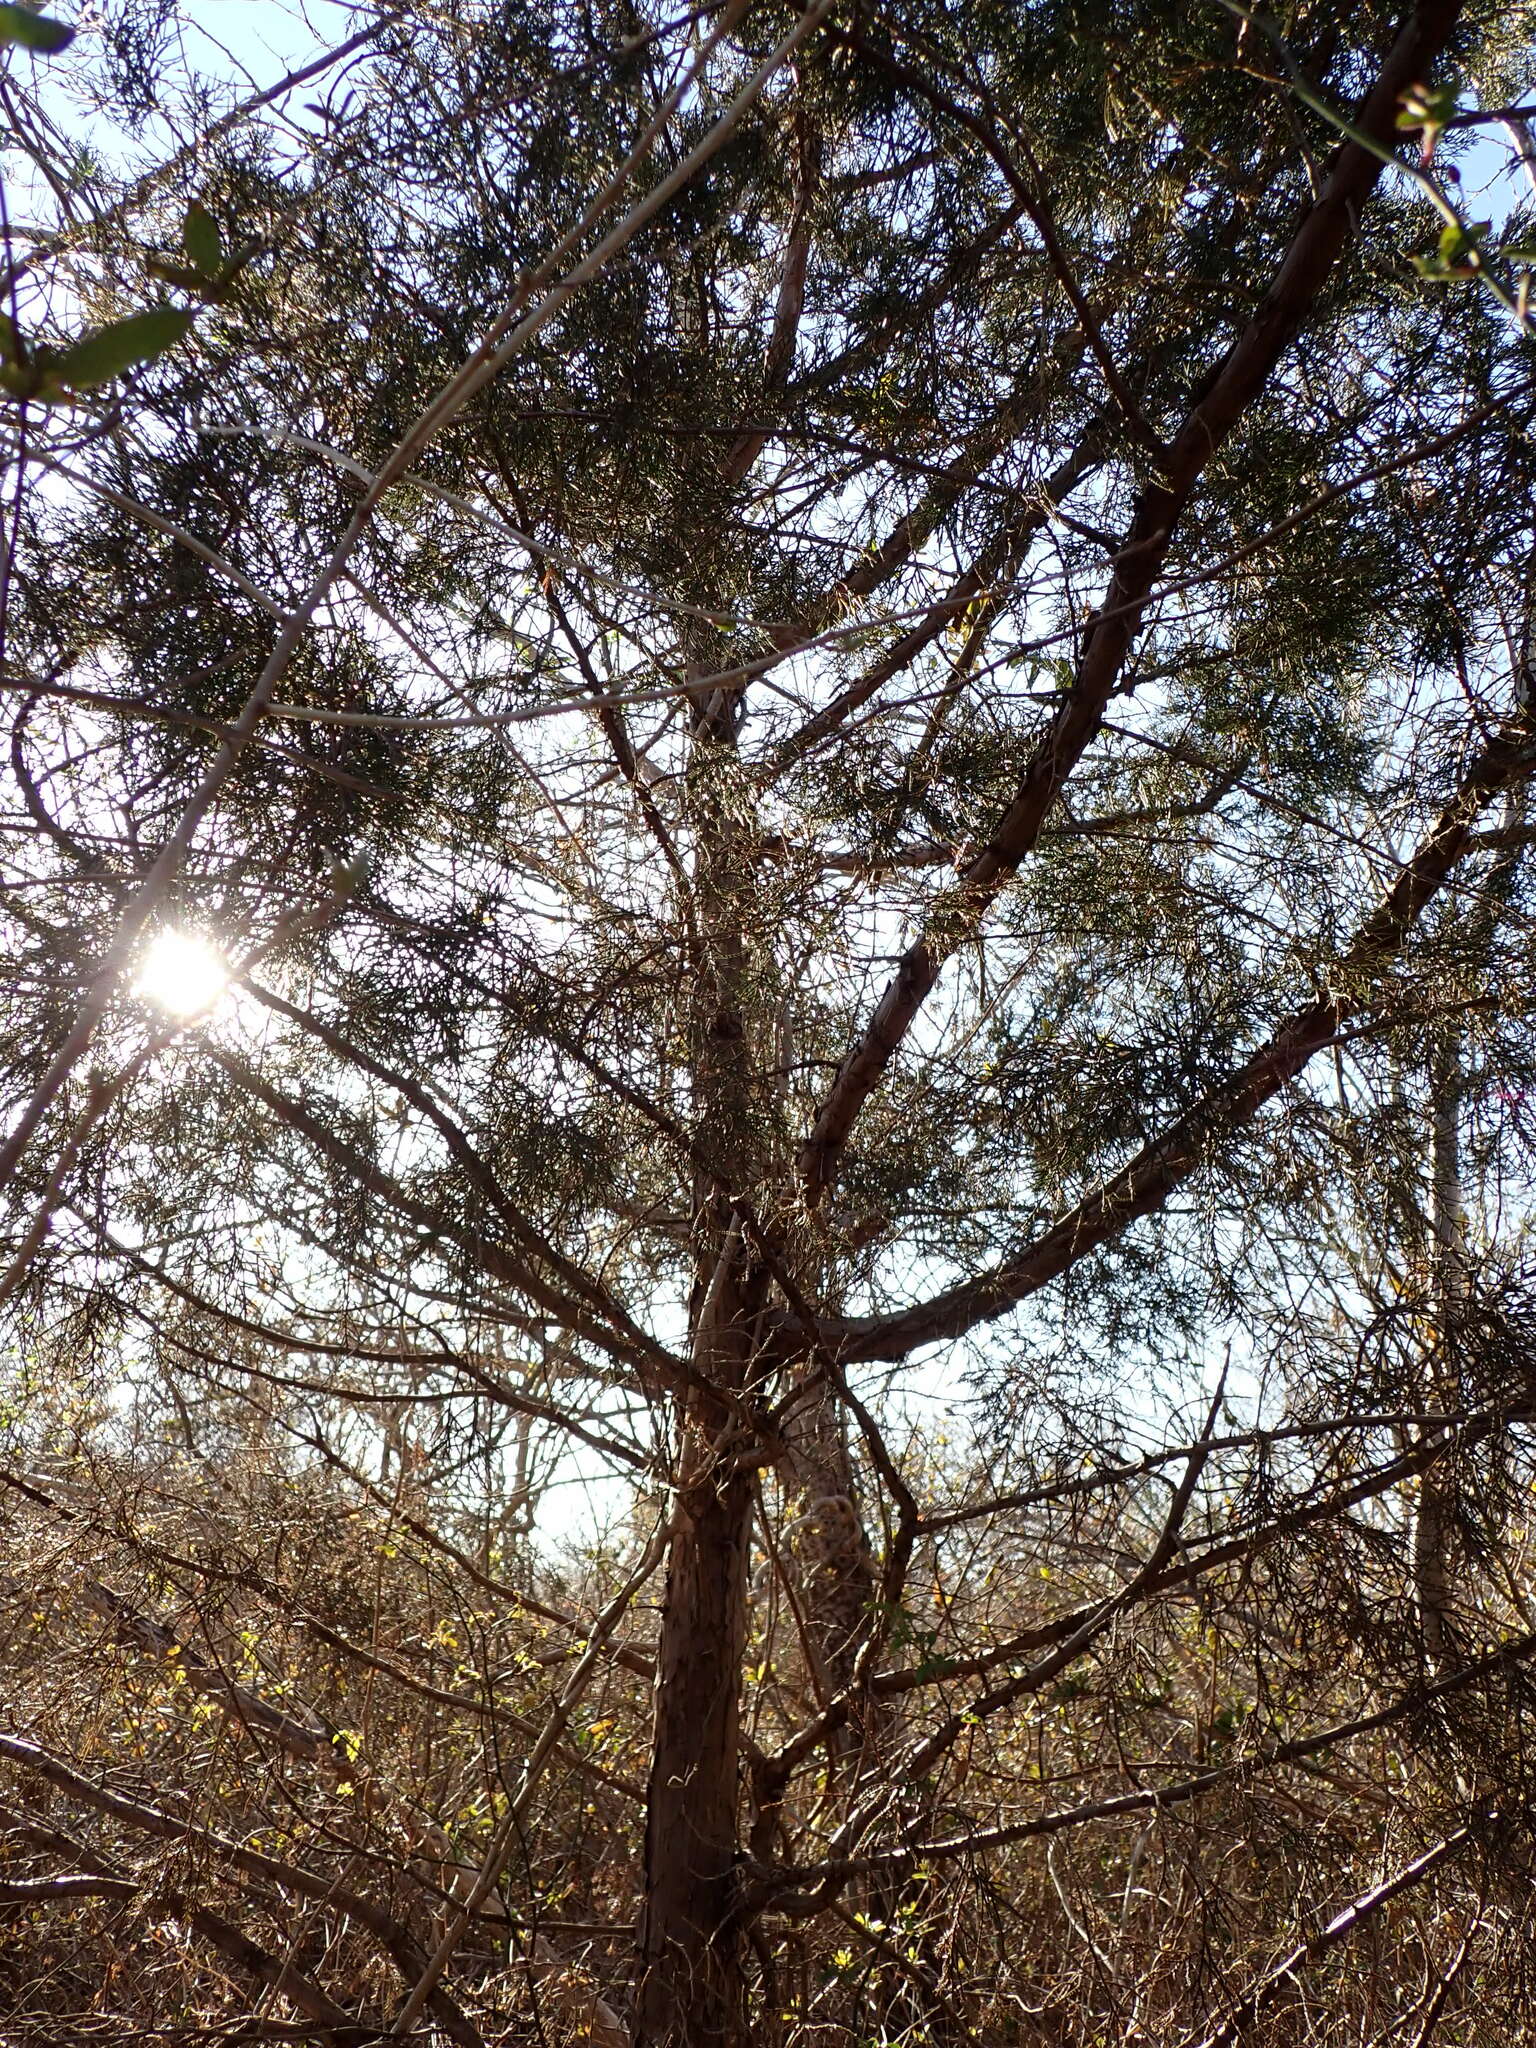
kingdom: Plantae
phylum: Tracheophyta
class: Pinopsida
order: Pinales
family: Cupressaceae
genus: Juniperus
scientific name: Juniperus virginiana
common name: Red juniper
